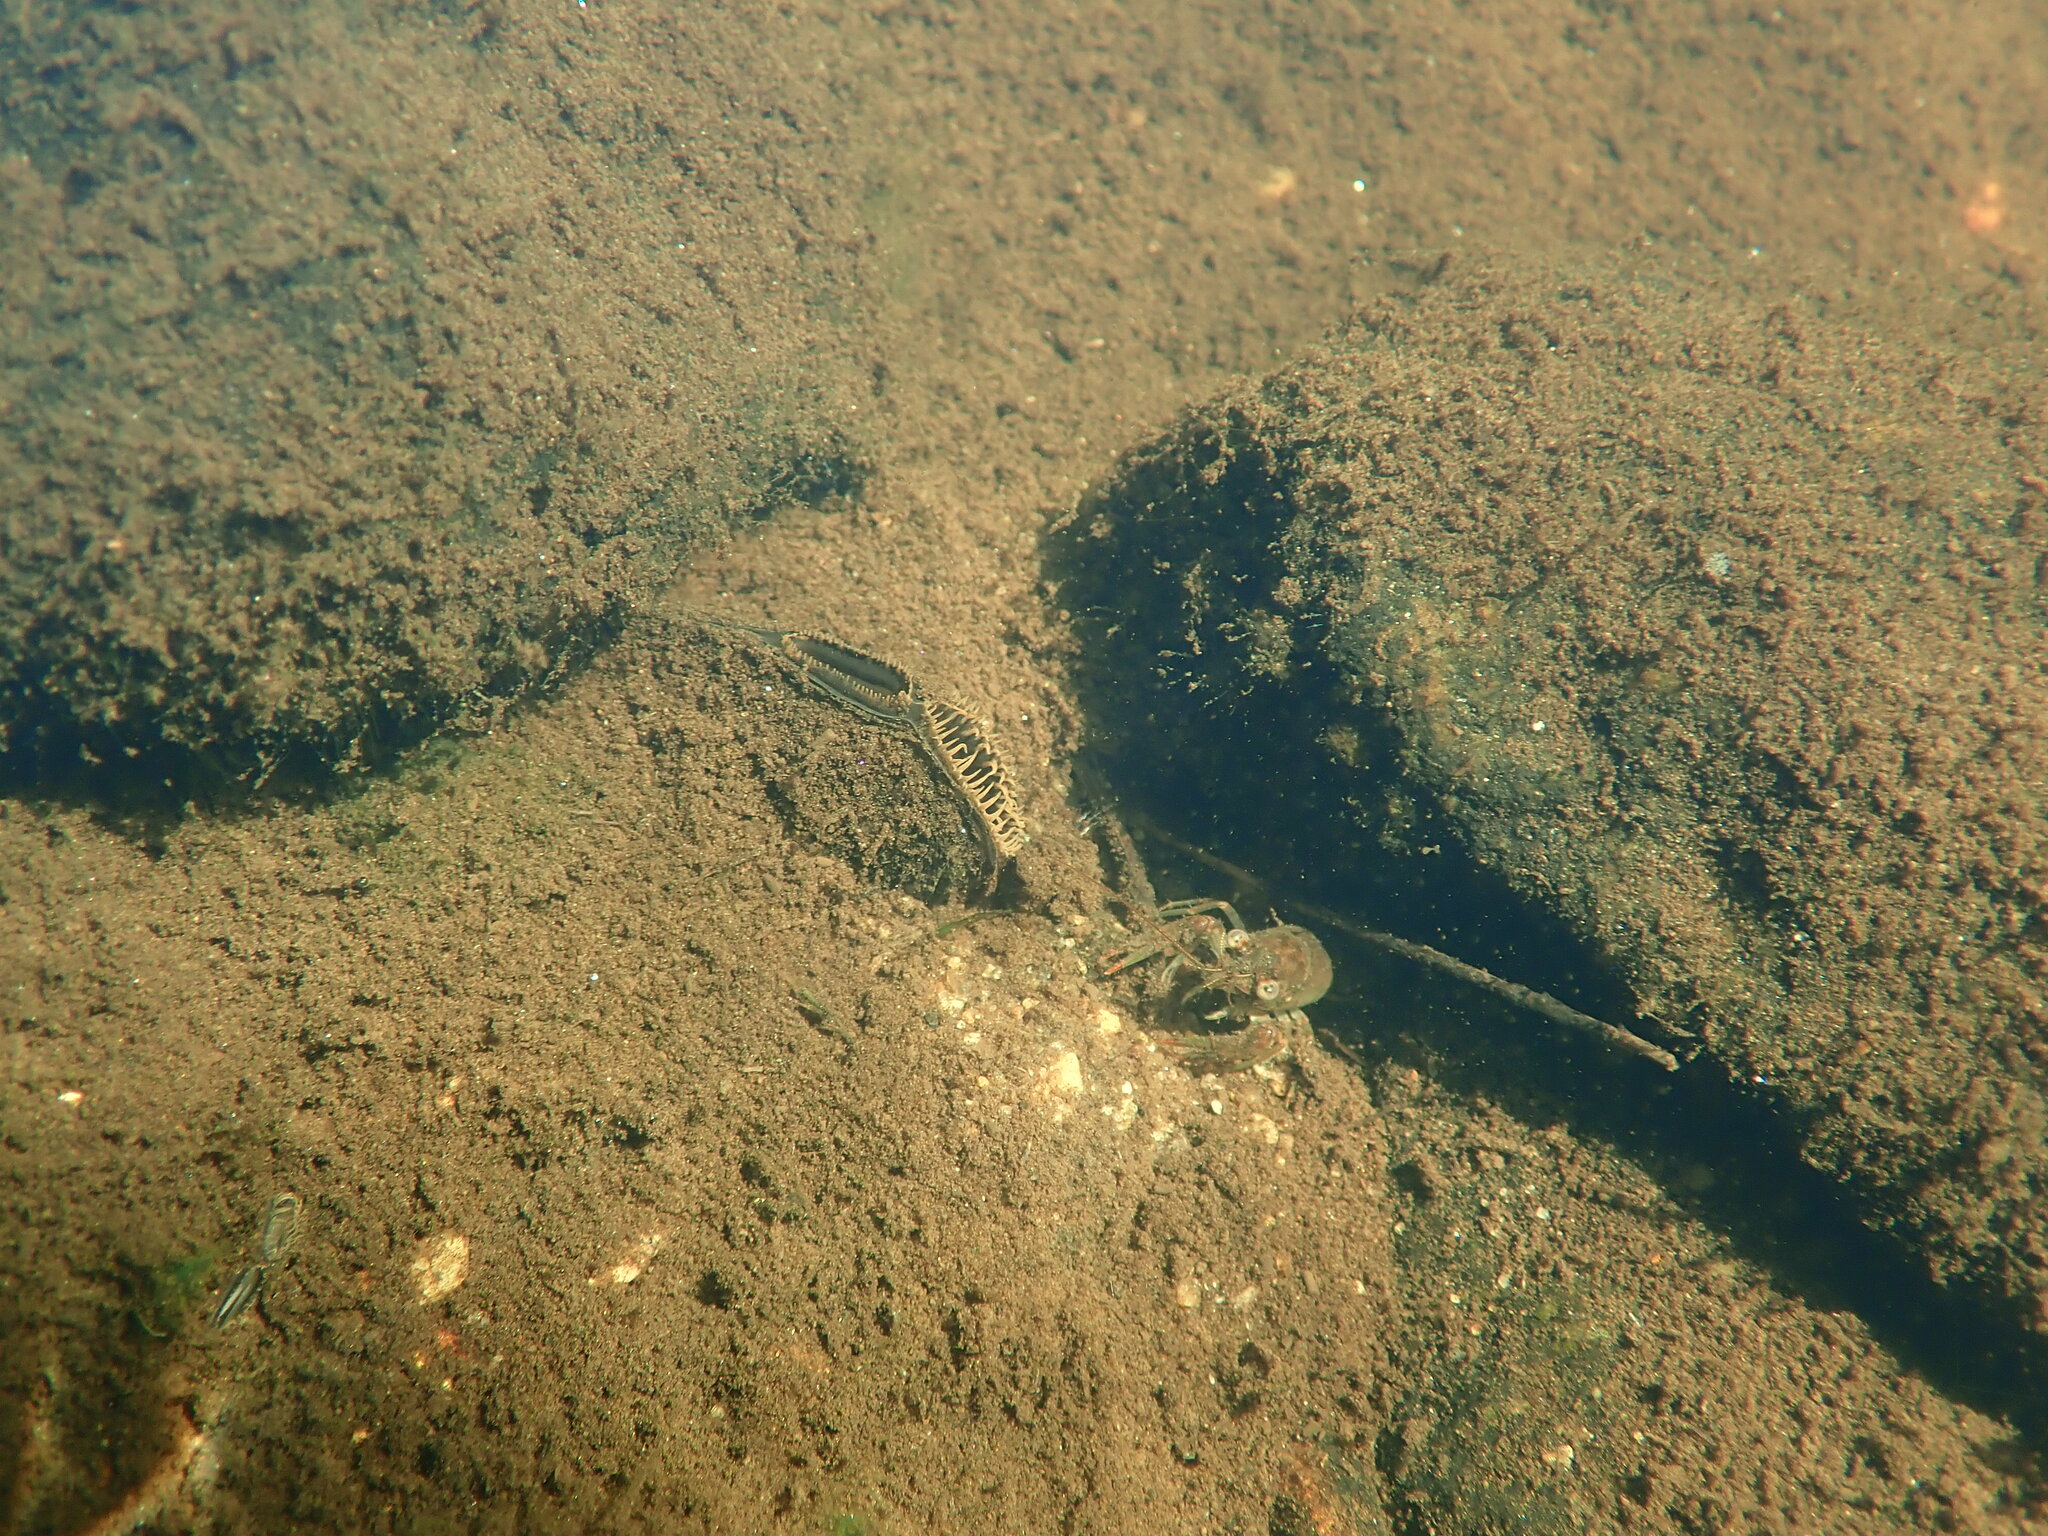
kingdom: Animalia
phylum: Mollusca
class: Bivalvia
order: Unionida
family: Unionidae
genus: Elliptio
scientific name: Elliptio complanata
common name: Eastern elliptio
